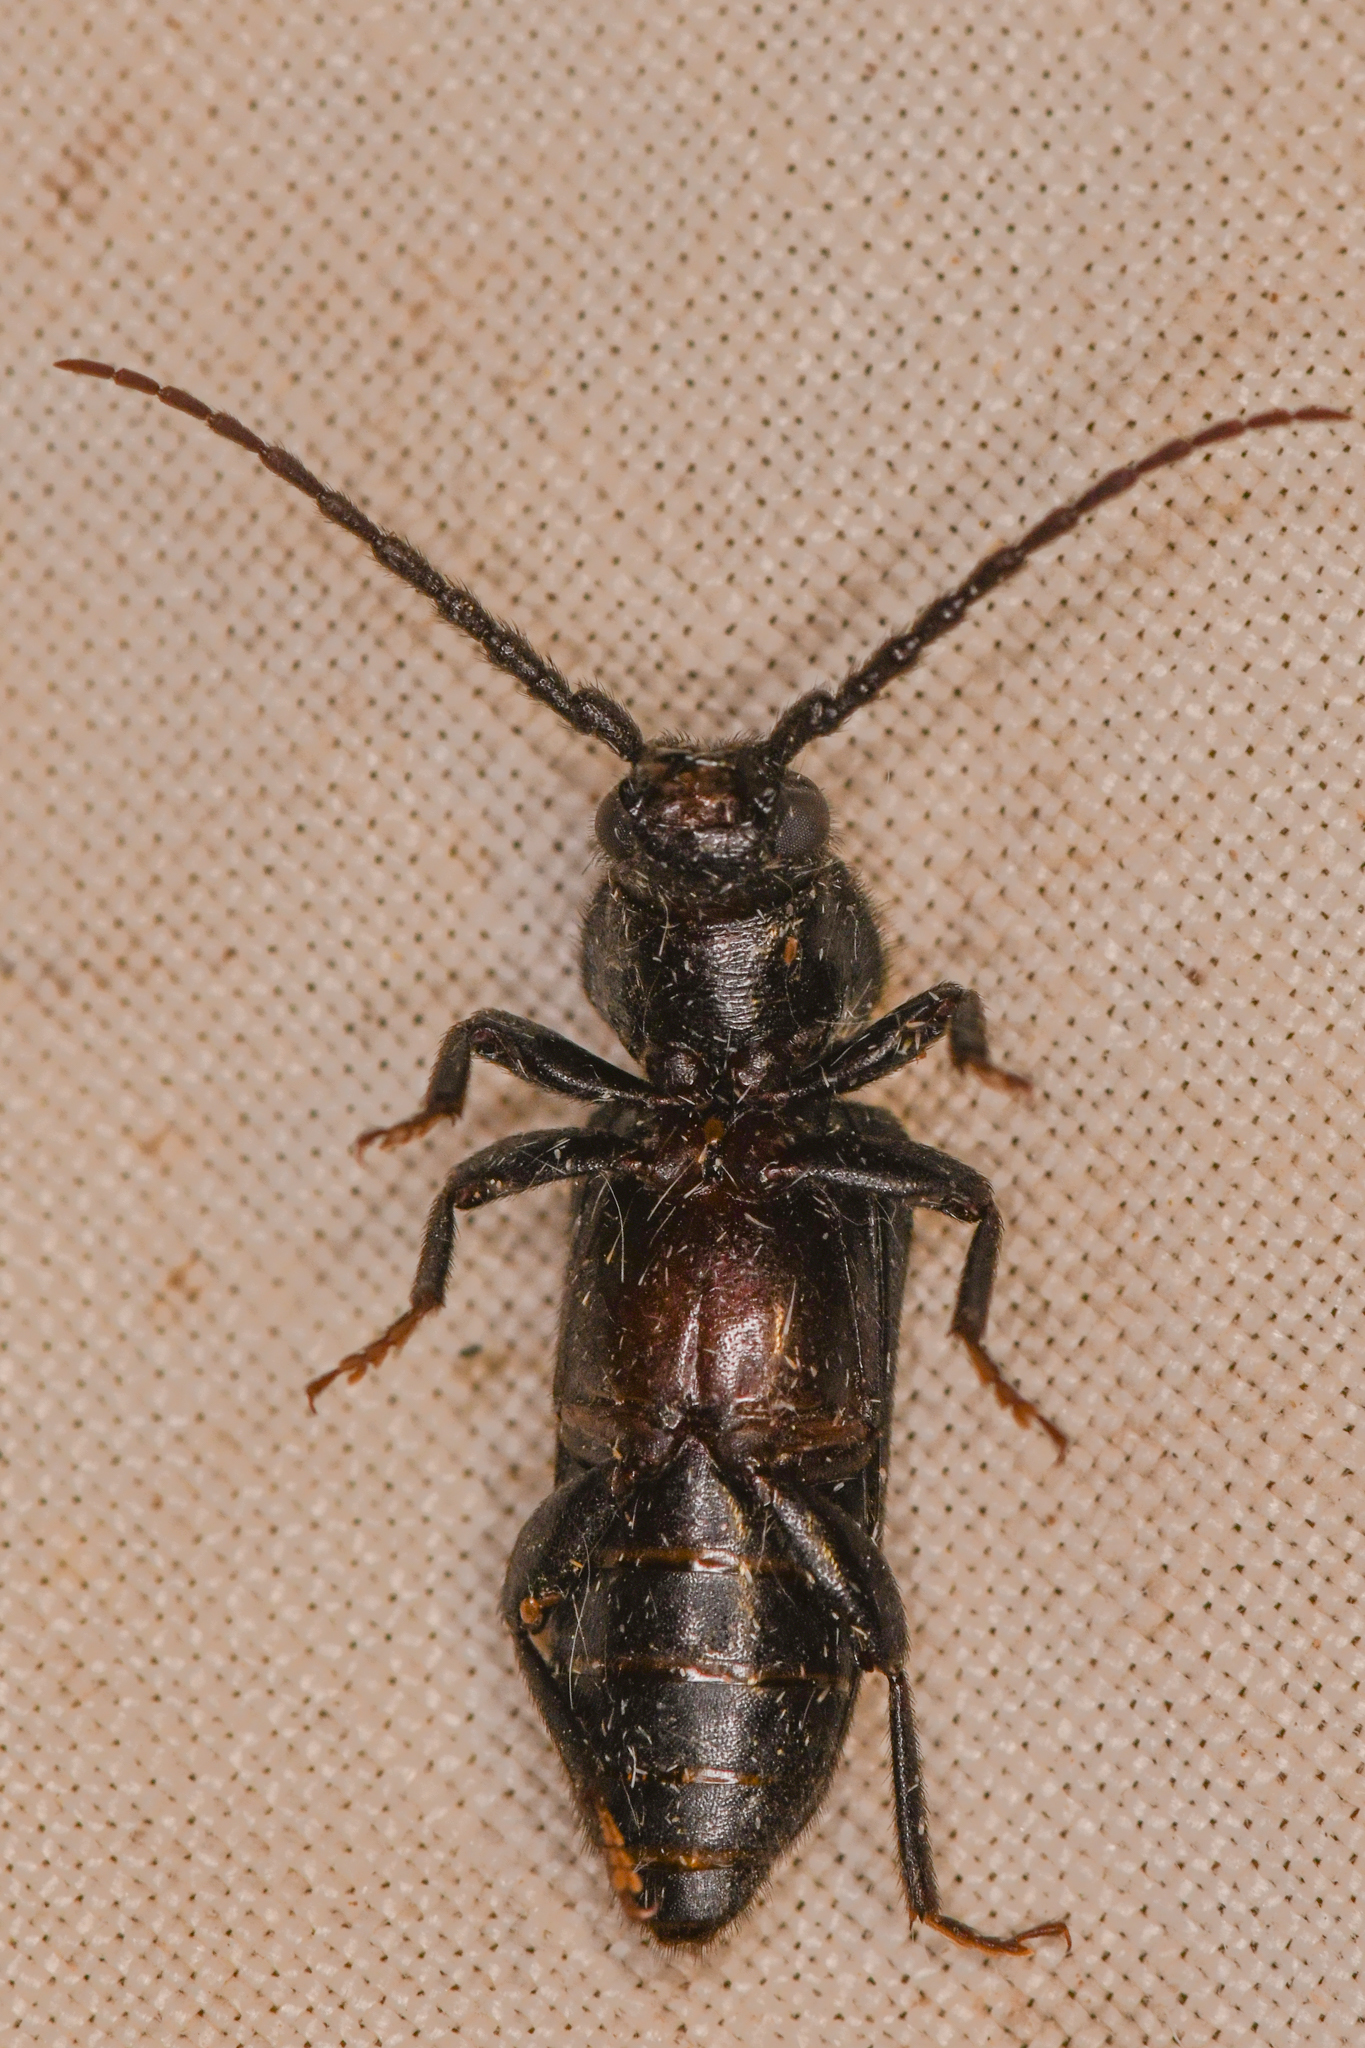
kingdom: Animalia
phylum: Arthropoda
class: Insecta
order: Coleoptera
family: Cerambycidae
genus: Asemum
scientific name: Asemum nitidum
